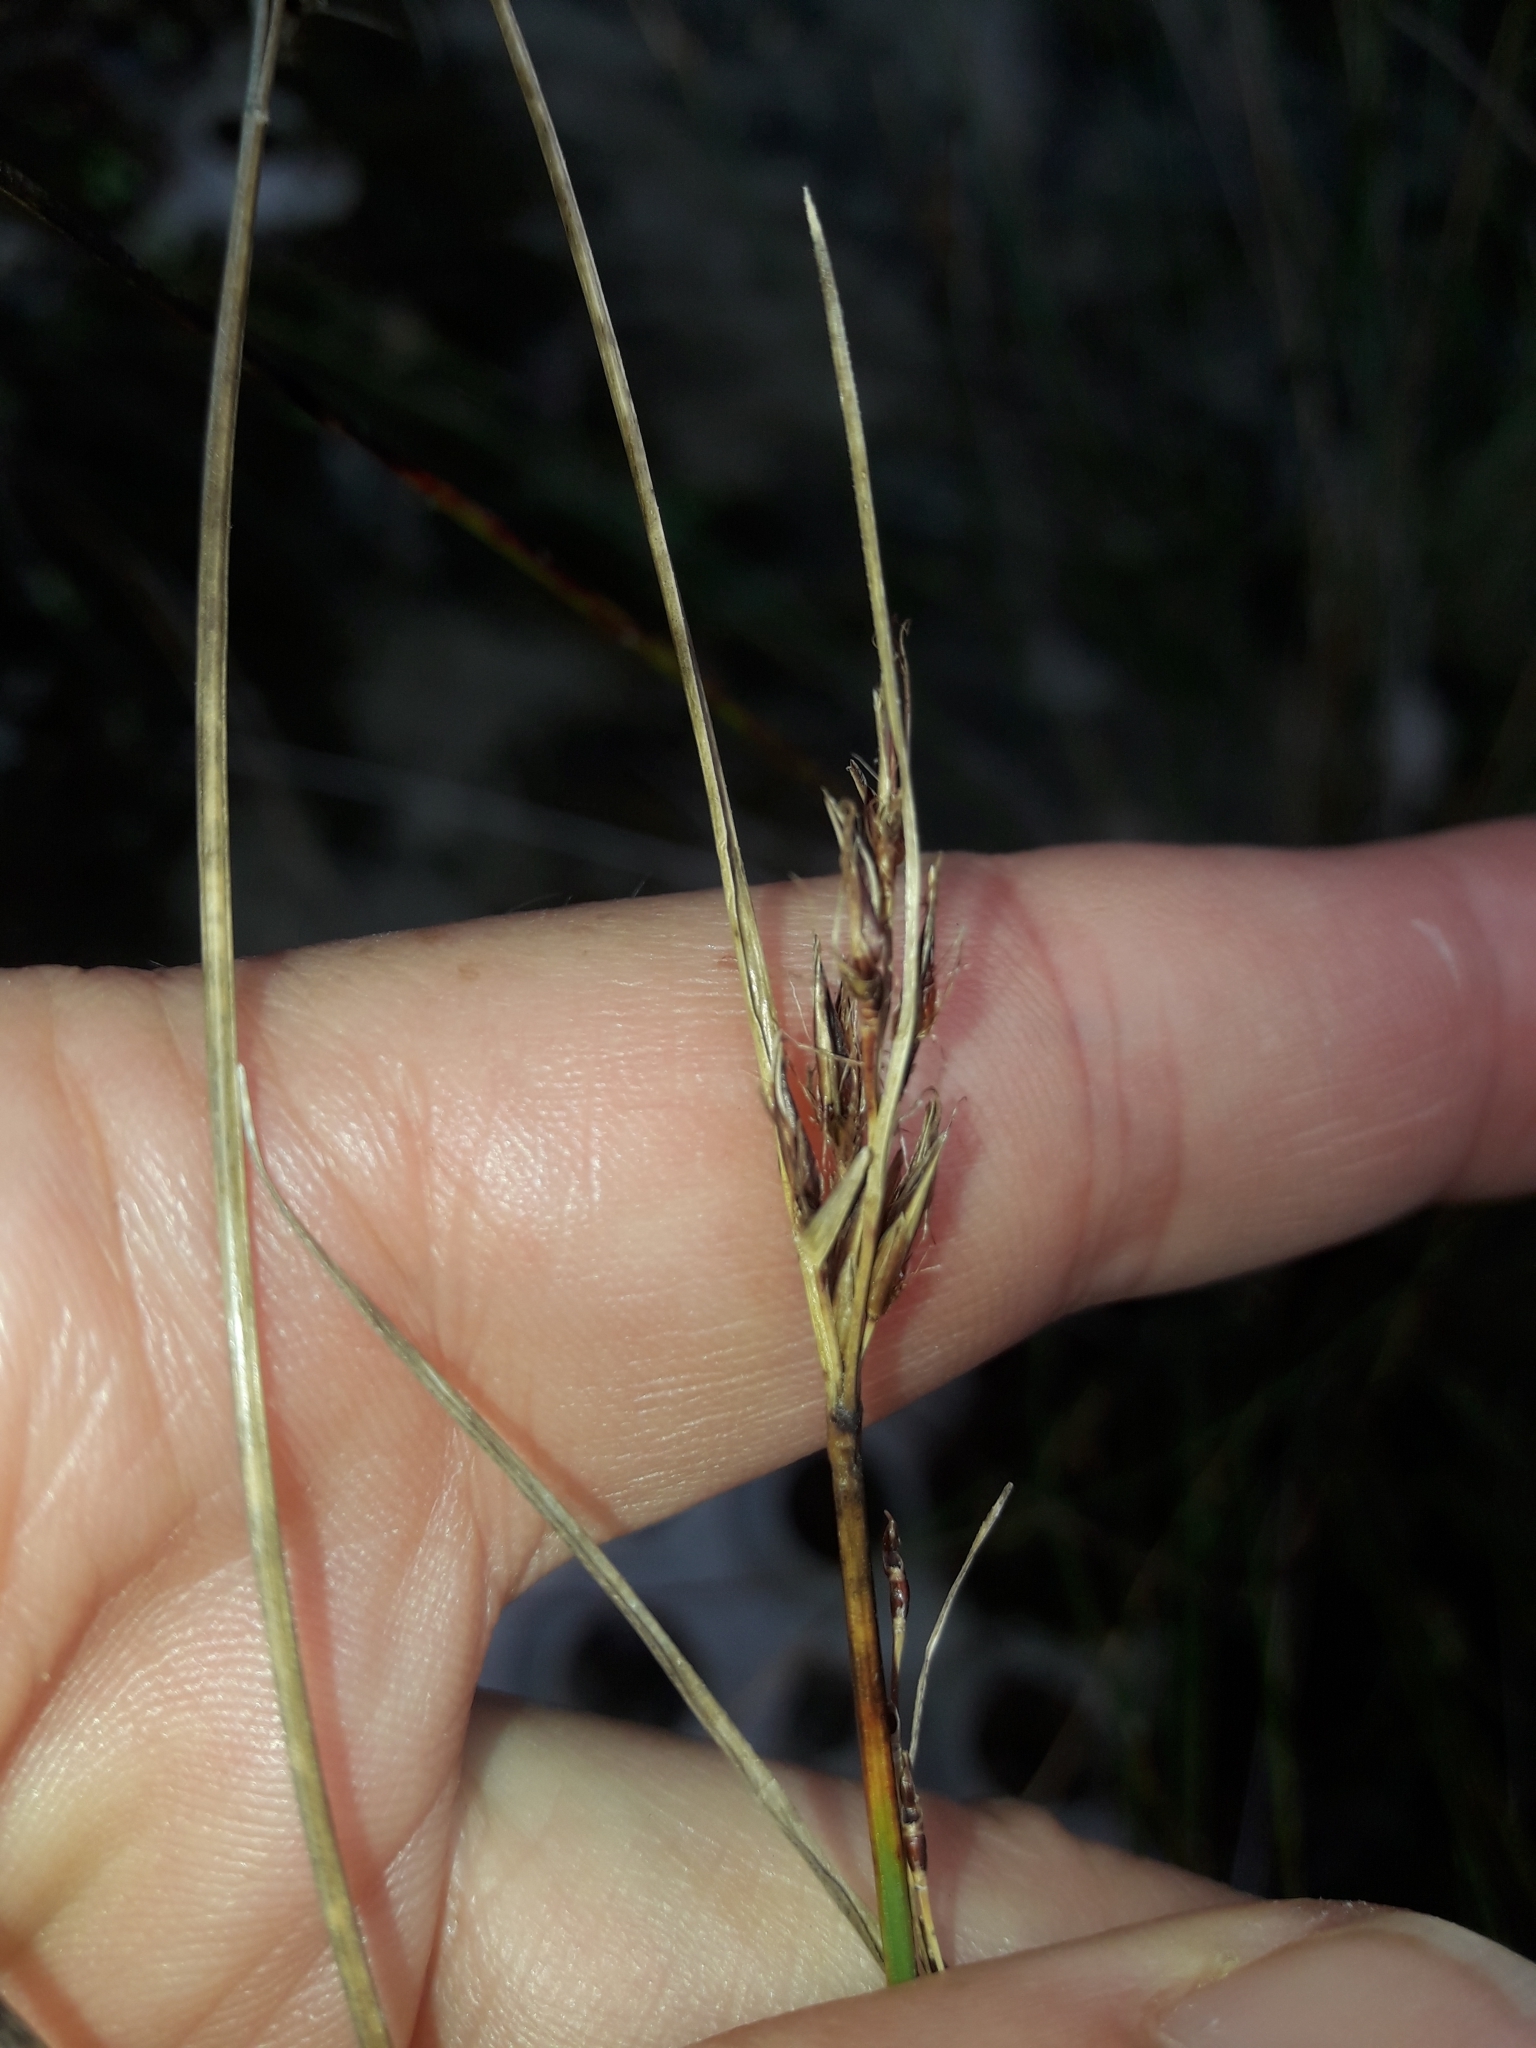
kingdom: Plantae
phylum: Tracheophyta
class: Liliopsida
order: Poales
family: Cyperaceae
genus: Schoenus
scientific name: Schoenus pauciflorus
